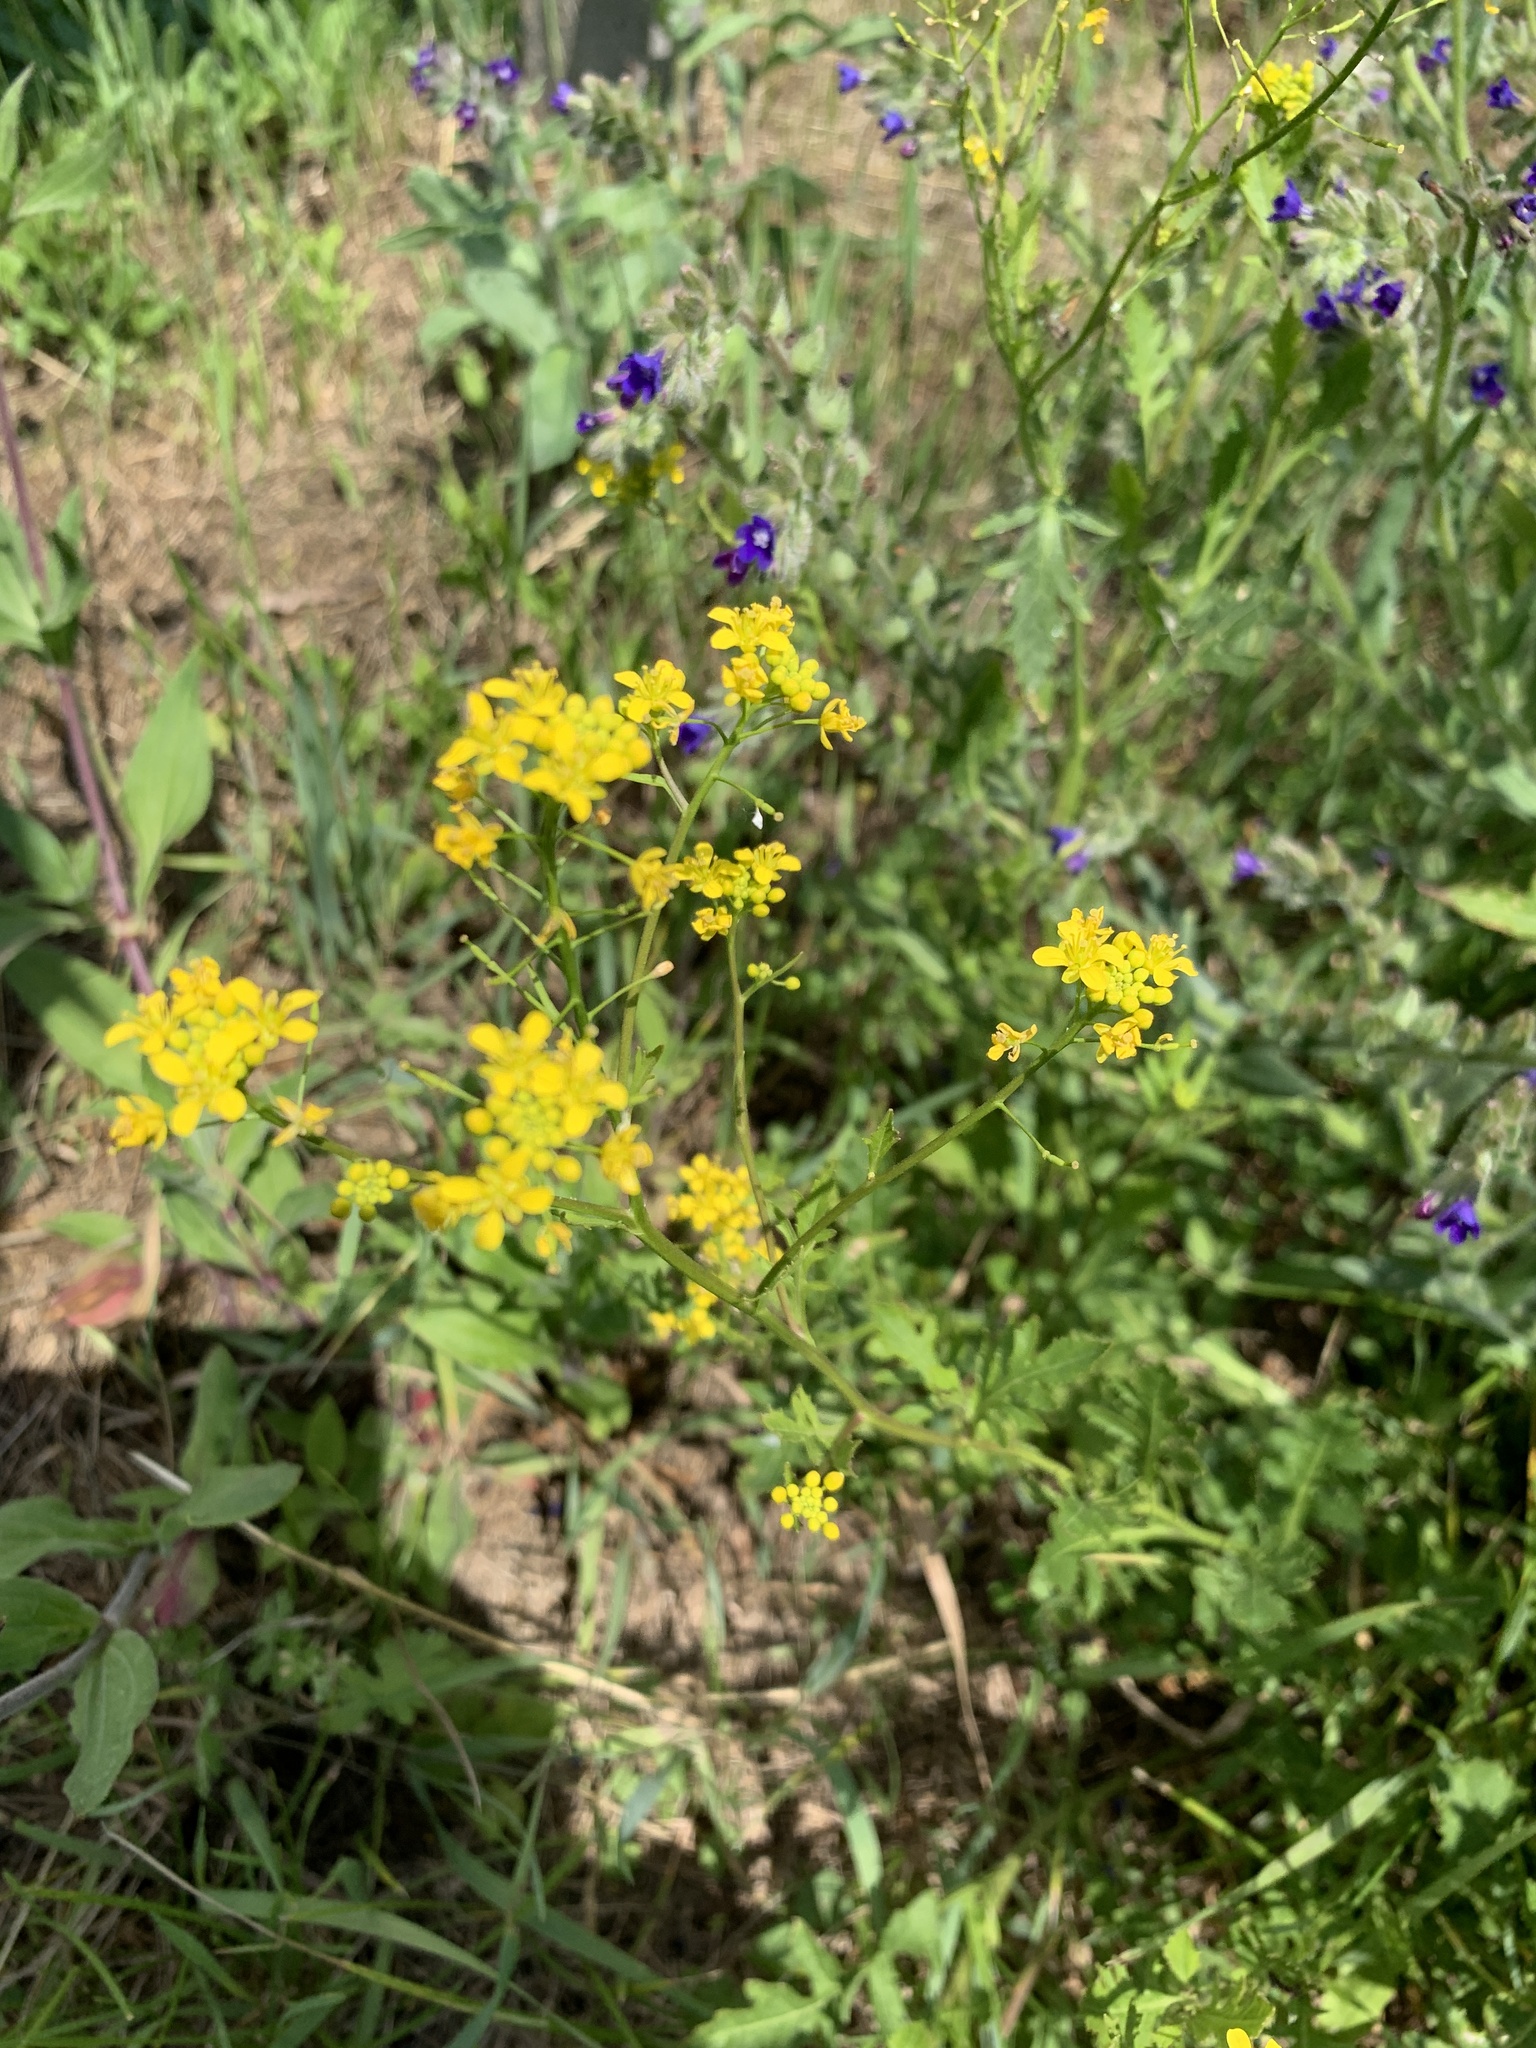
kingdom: Plantae
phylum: Tracheophyta
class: Magnoliopsida
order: Rosales
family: Rosaceae
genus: Potentilla
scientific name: Potentilla argentea
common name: Hoary cinquefoil
